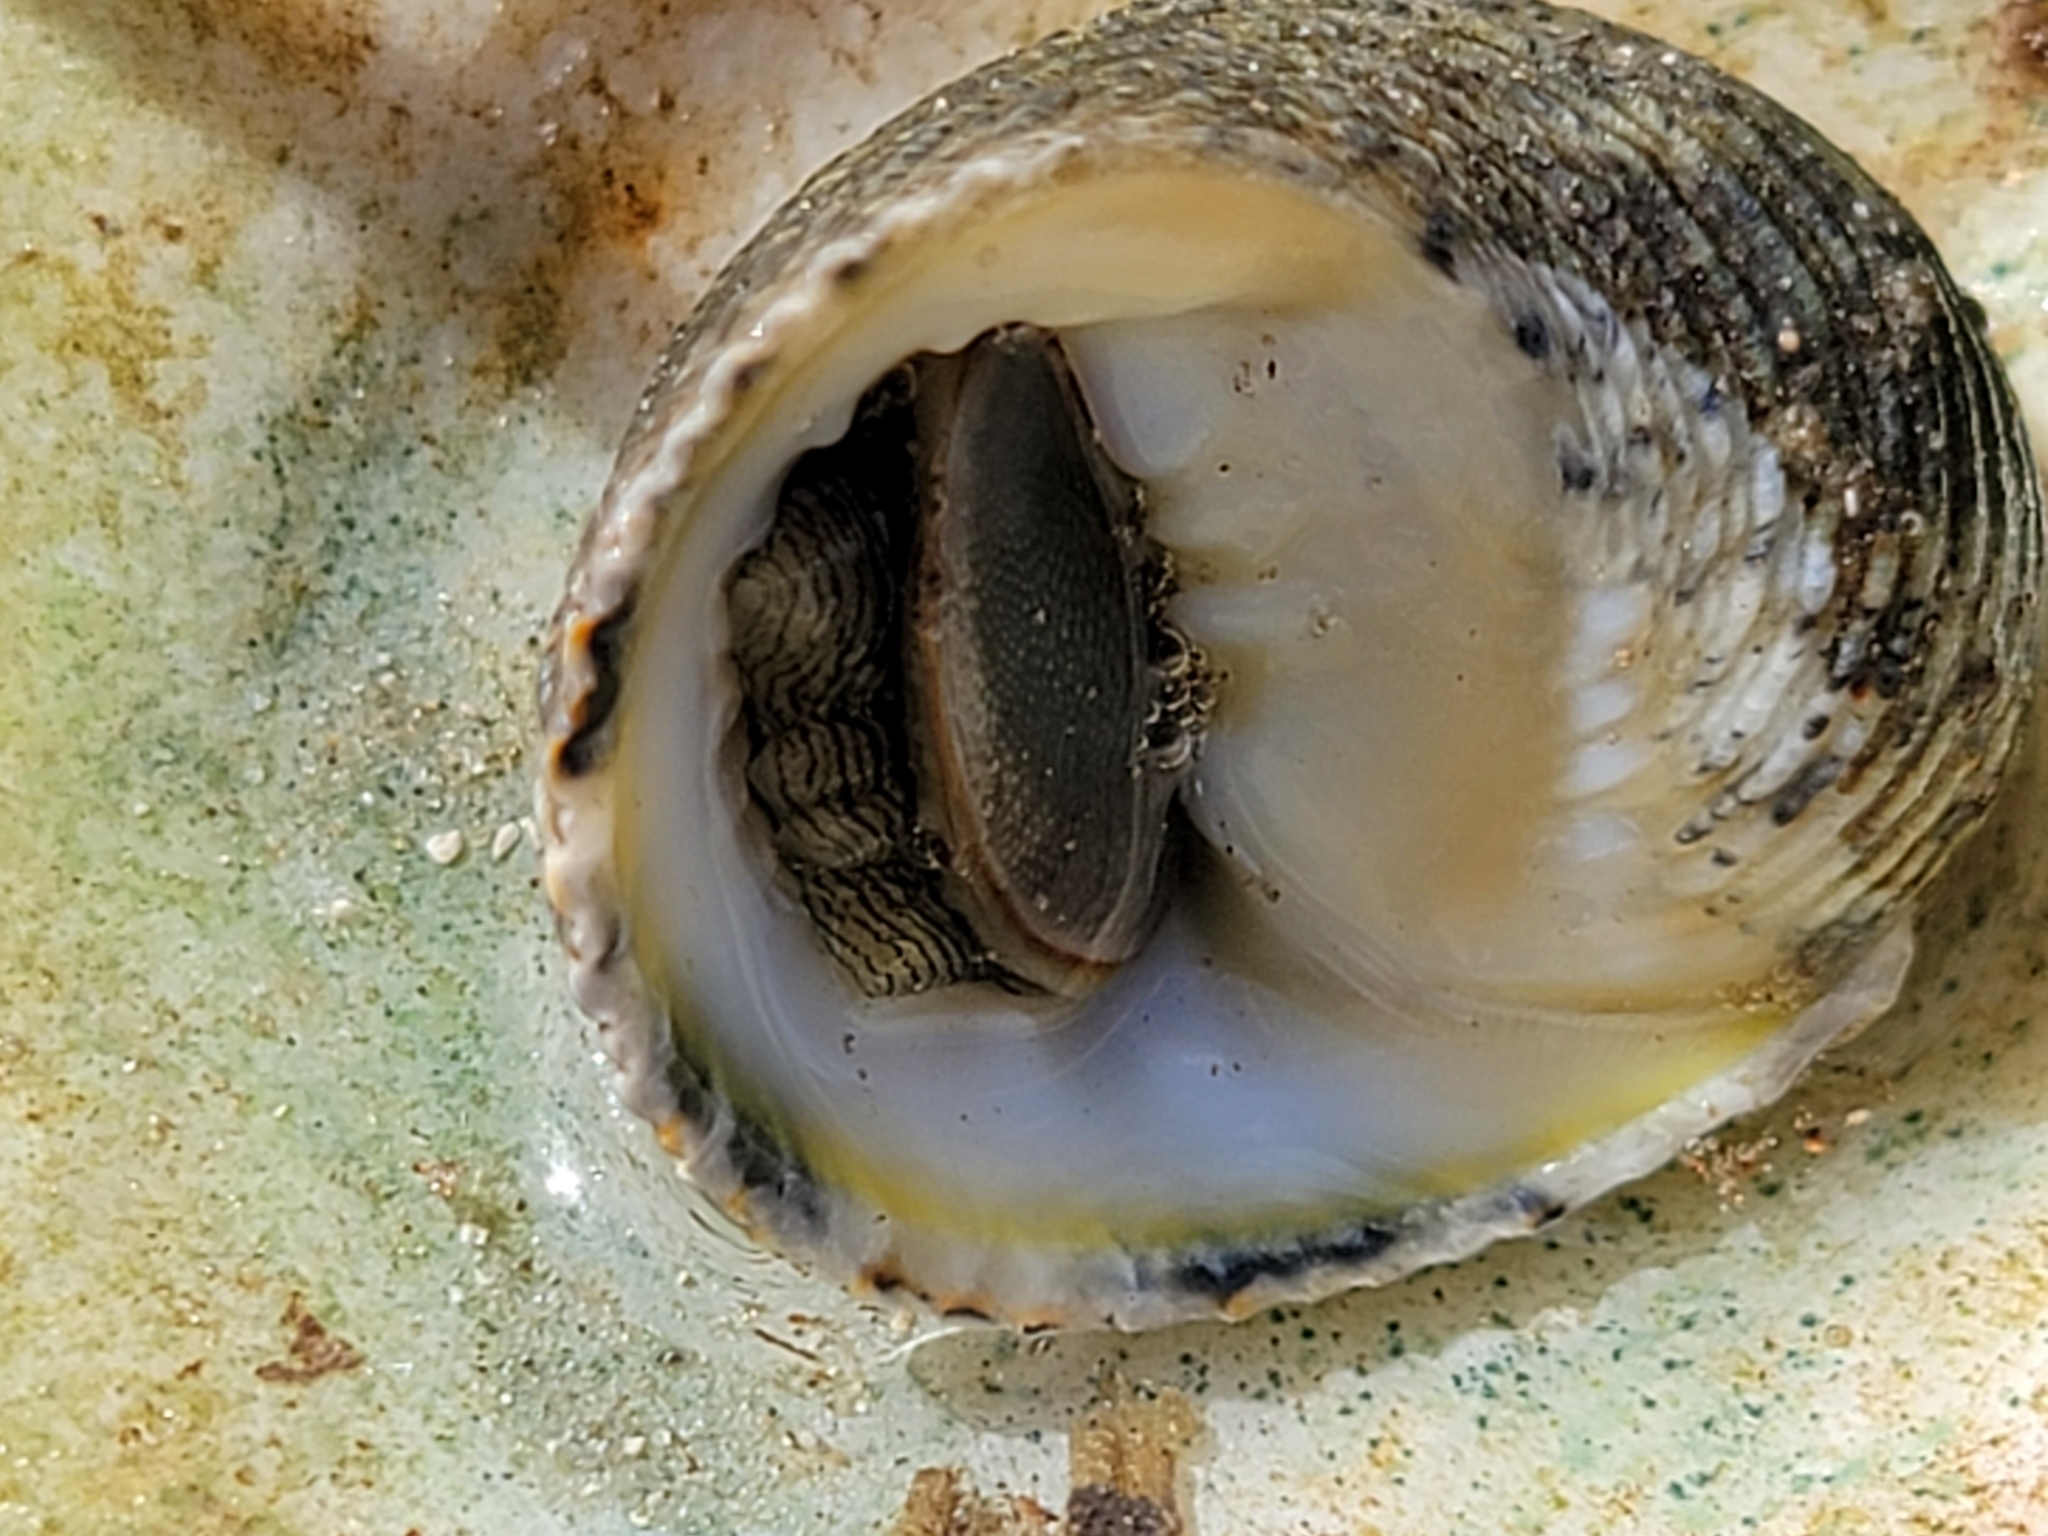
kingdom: Animalia
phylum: Mollusca
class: Gastropoda
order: Cycloneritida
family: Neritidae
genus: Nerita
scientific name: Nerita fulgurans
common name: Antillean nerite
